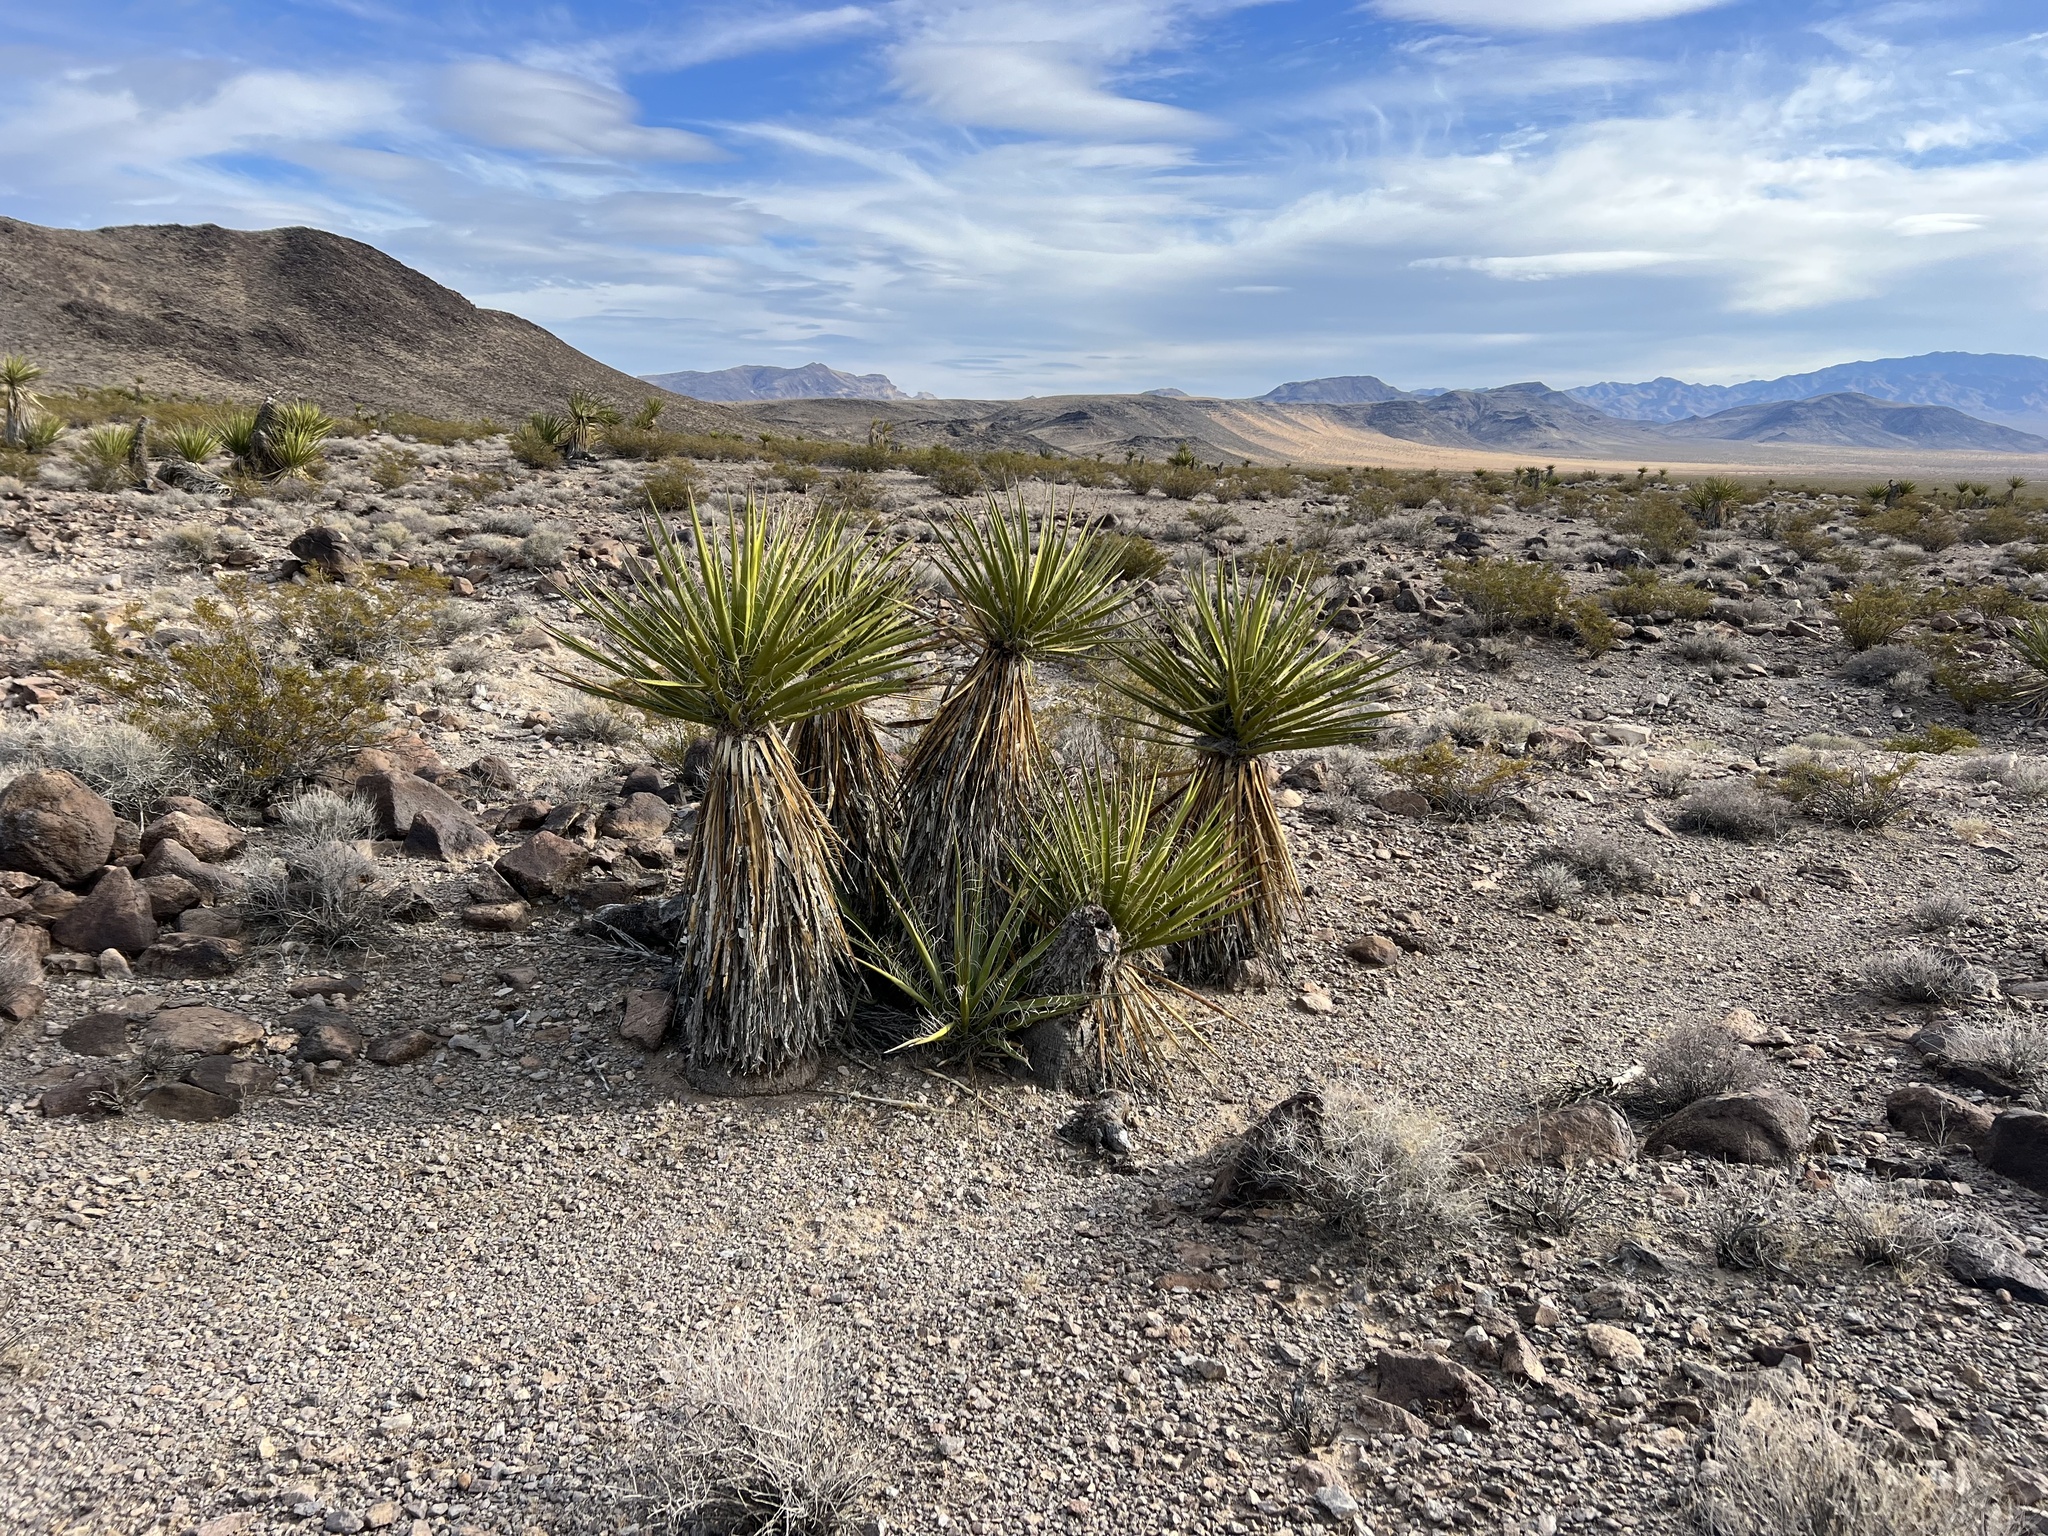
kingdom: Plantae
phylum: Tracheophyta
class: Liliopsida
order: Asparagales
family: Asparagaceae
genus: Yucca
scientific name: Yucca schidigera
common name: Mojave yucca
